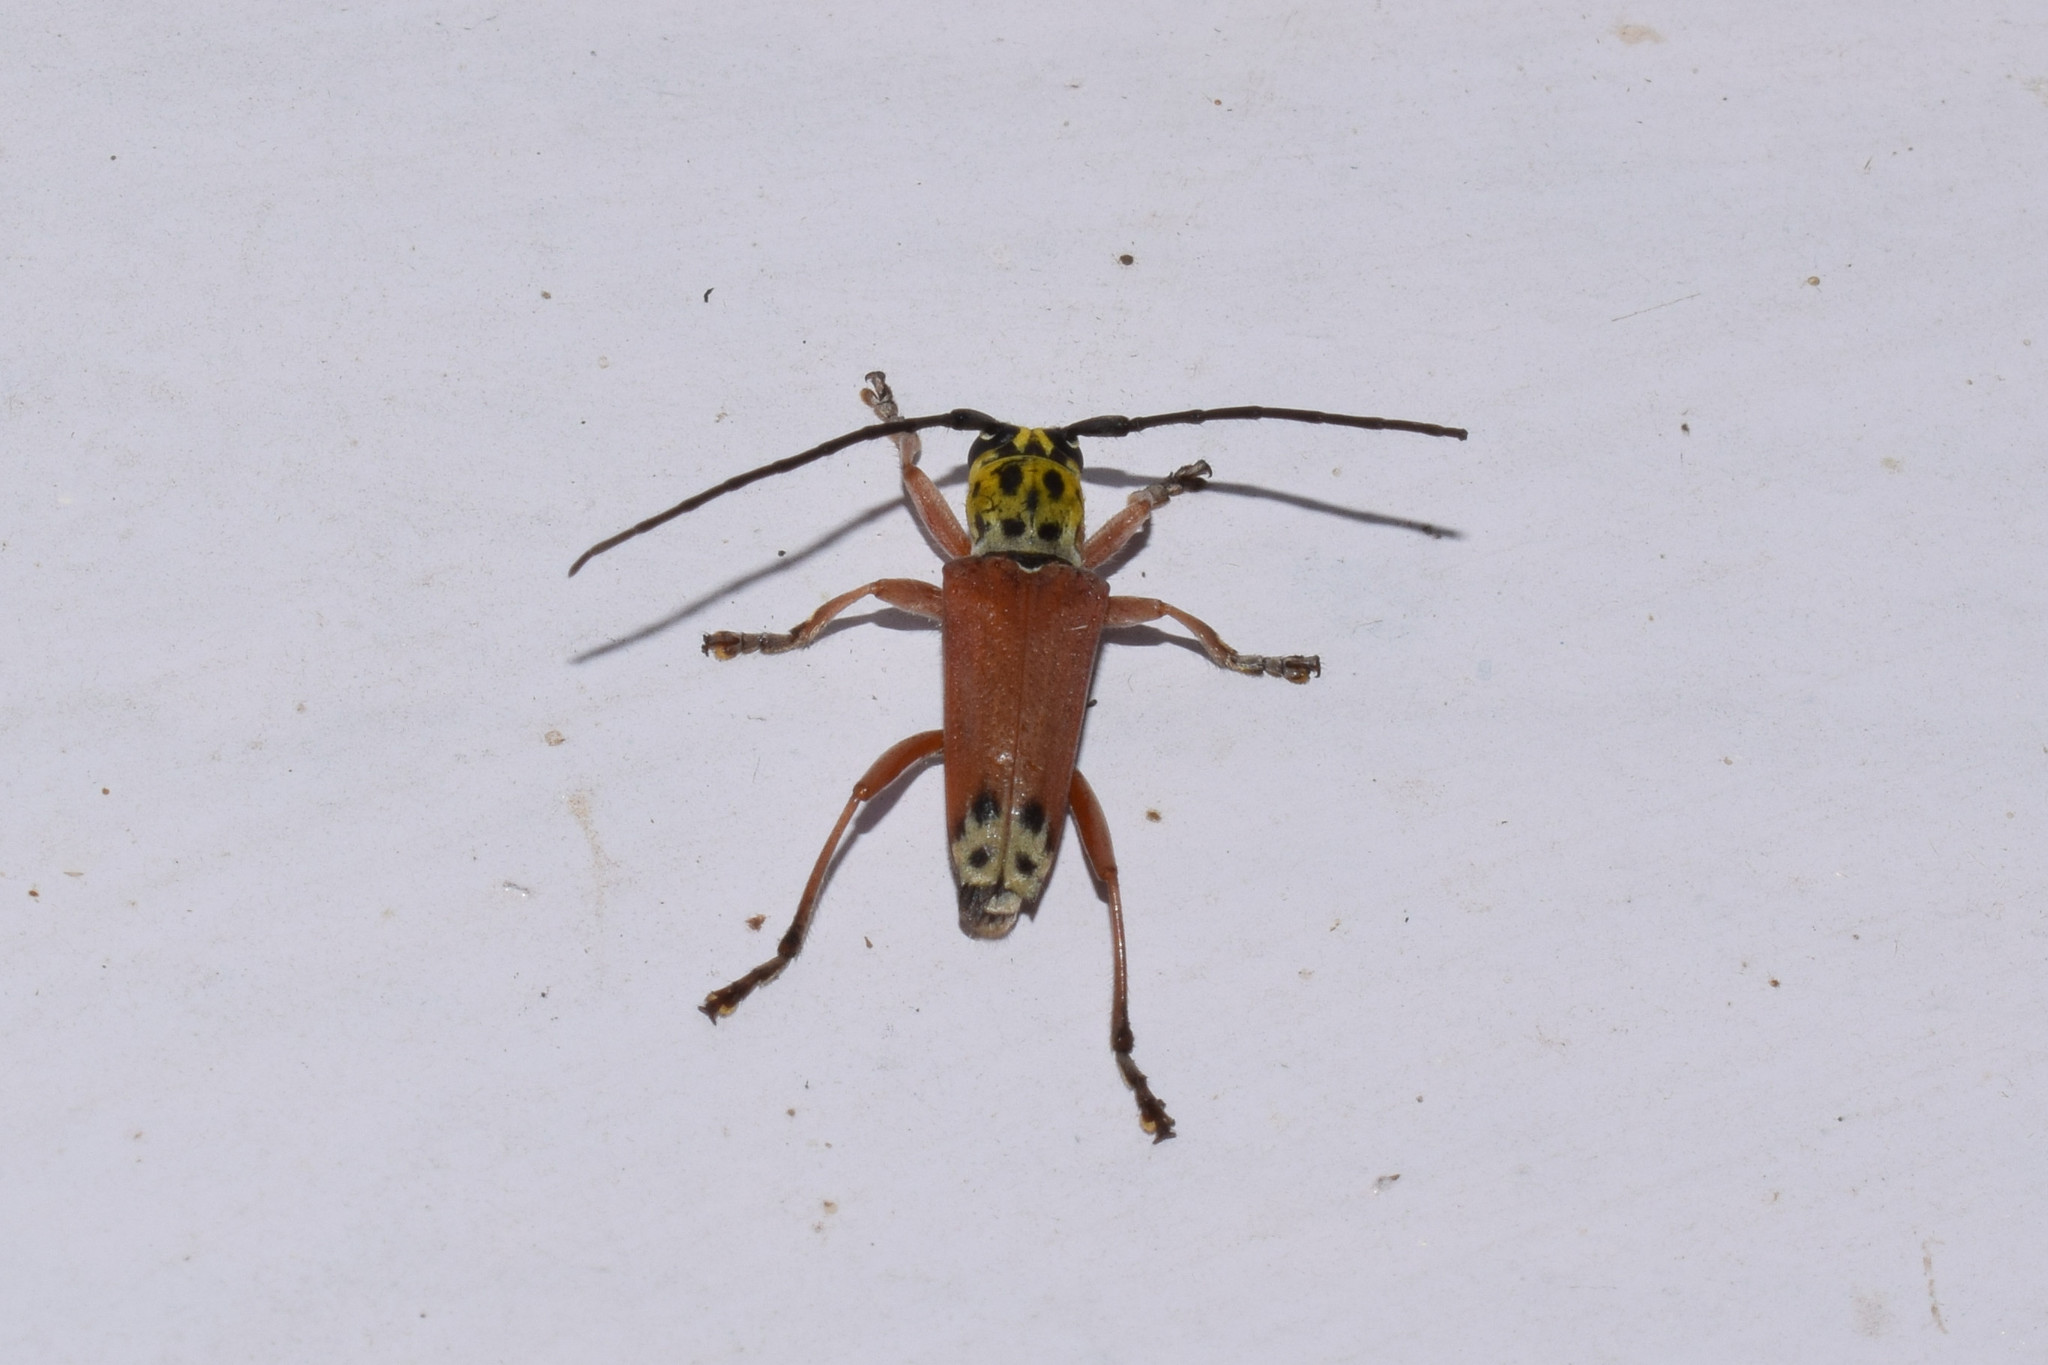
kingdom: Animalia
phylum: Arthropoda
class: Insecta
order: Coleoptera
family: Cerambycidae
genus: Glenea
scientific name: Glenea spilota
